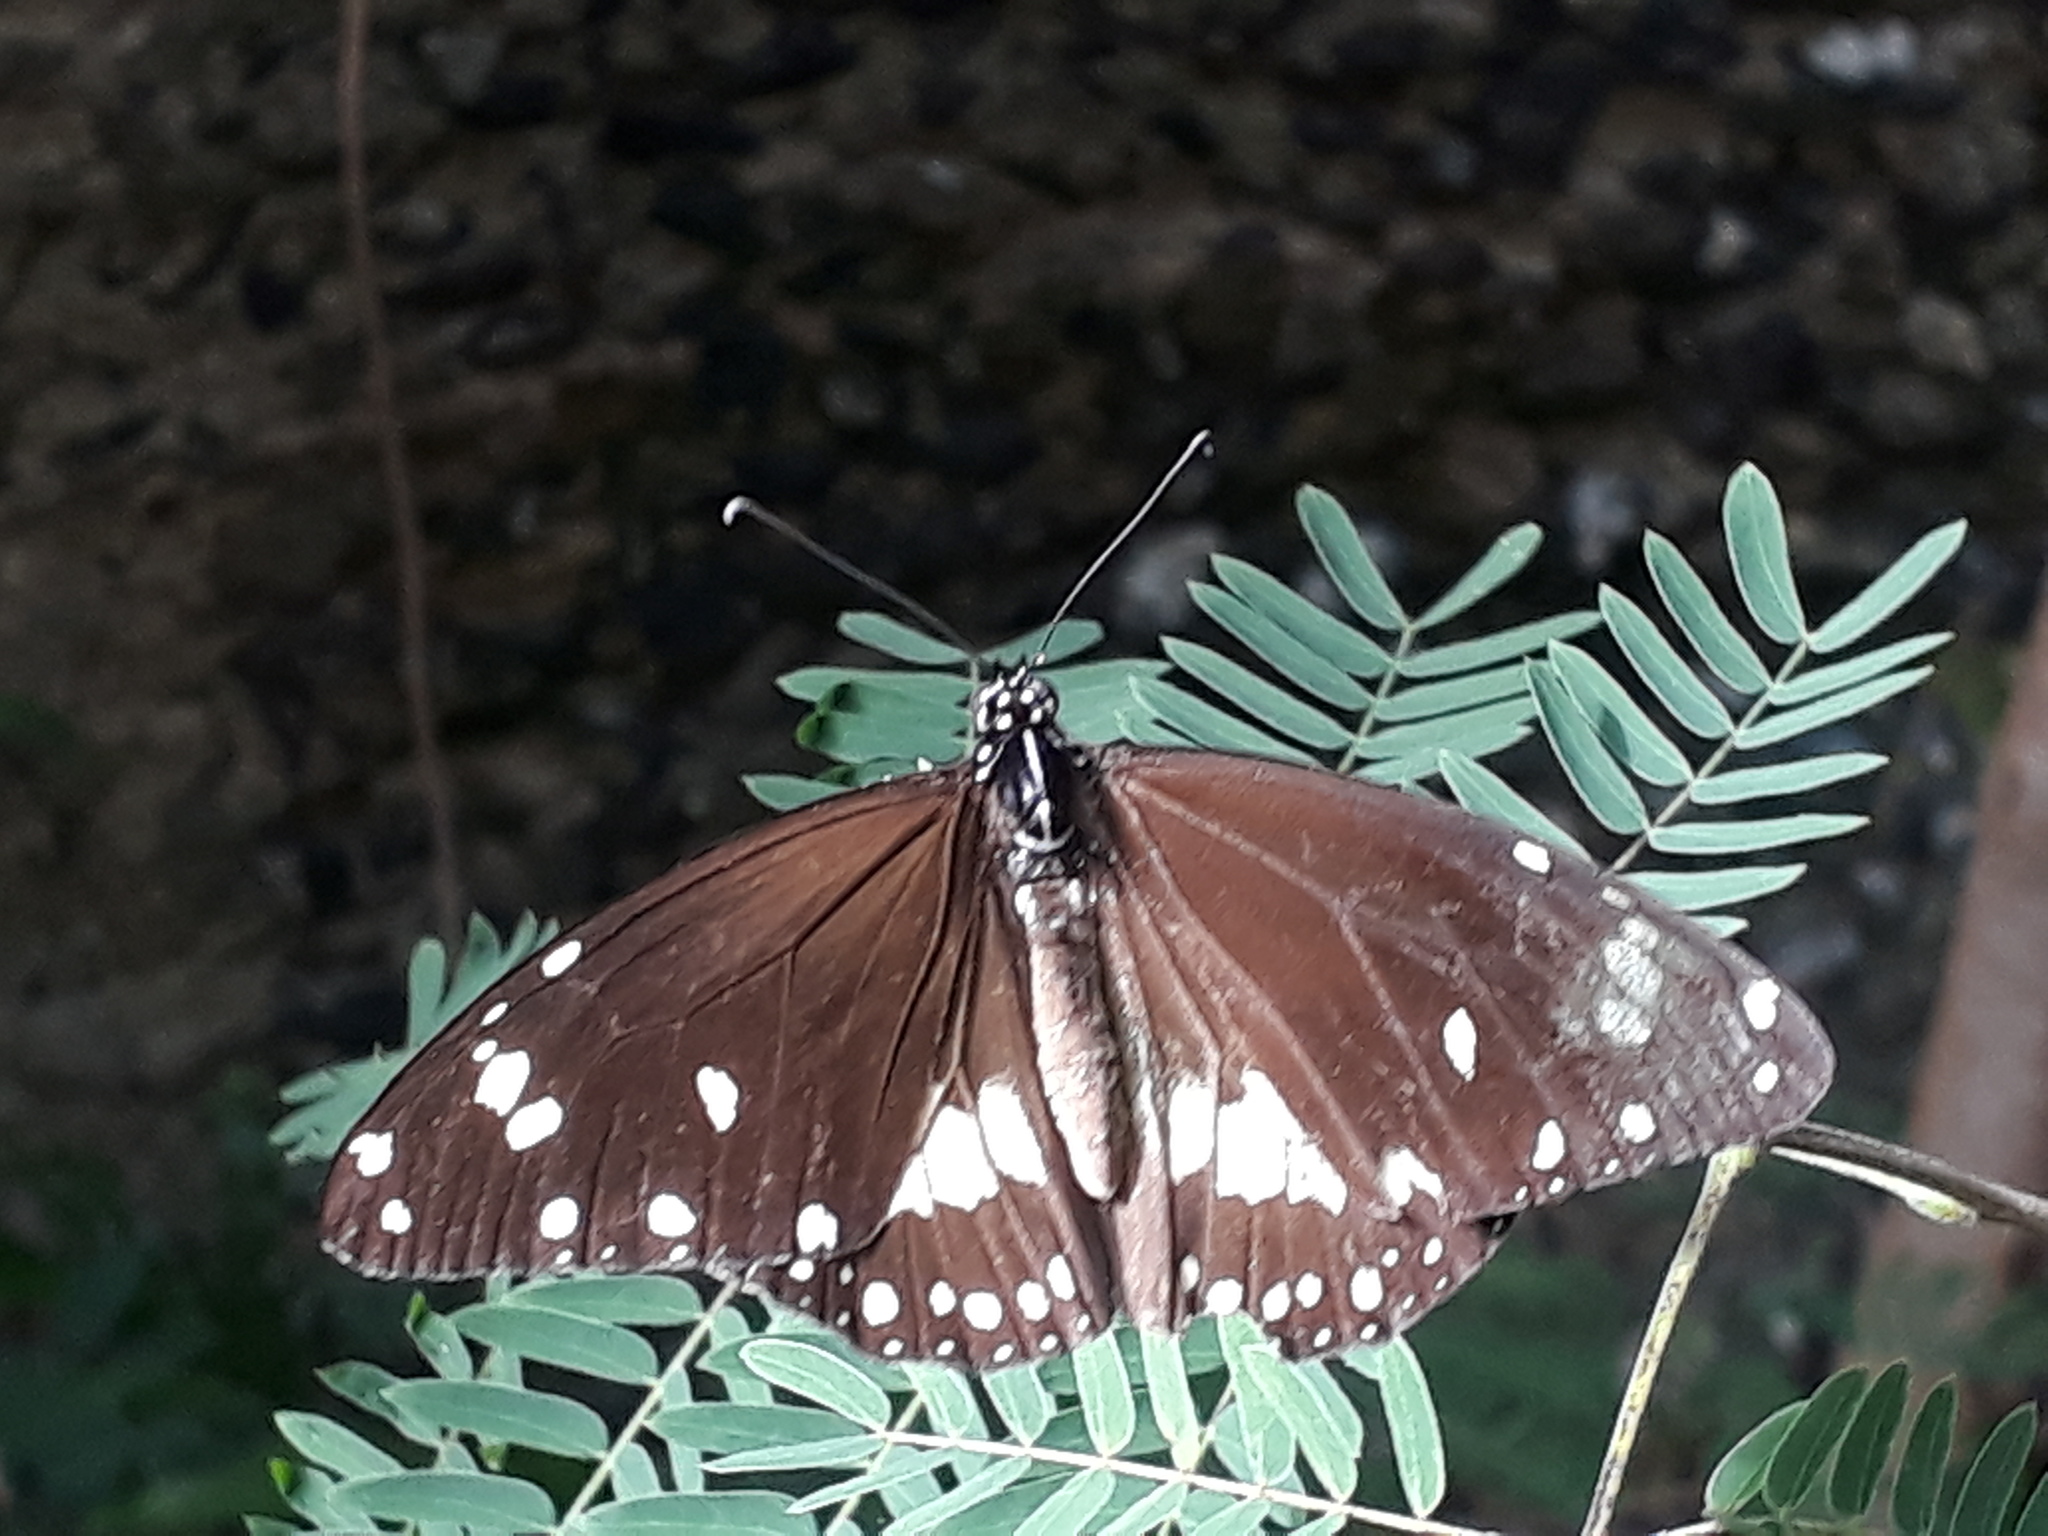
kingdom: Animalia
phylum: Arthropoda
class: Insecta
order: Lepidoptera
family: Nymphalidae
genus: Amauris
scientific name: Amauris phoedon
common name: Mauritian friar
